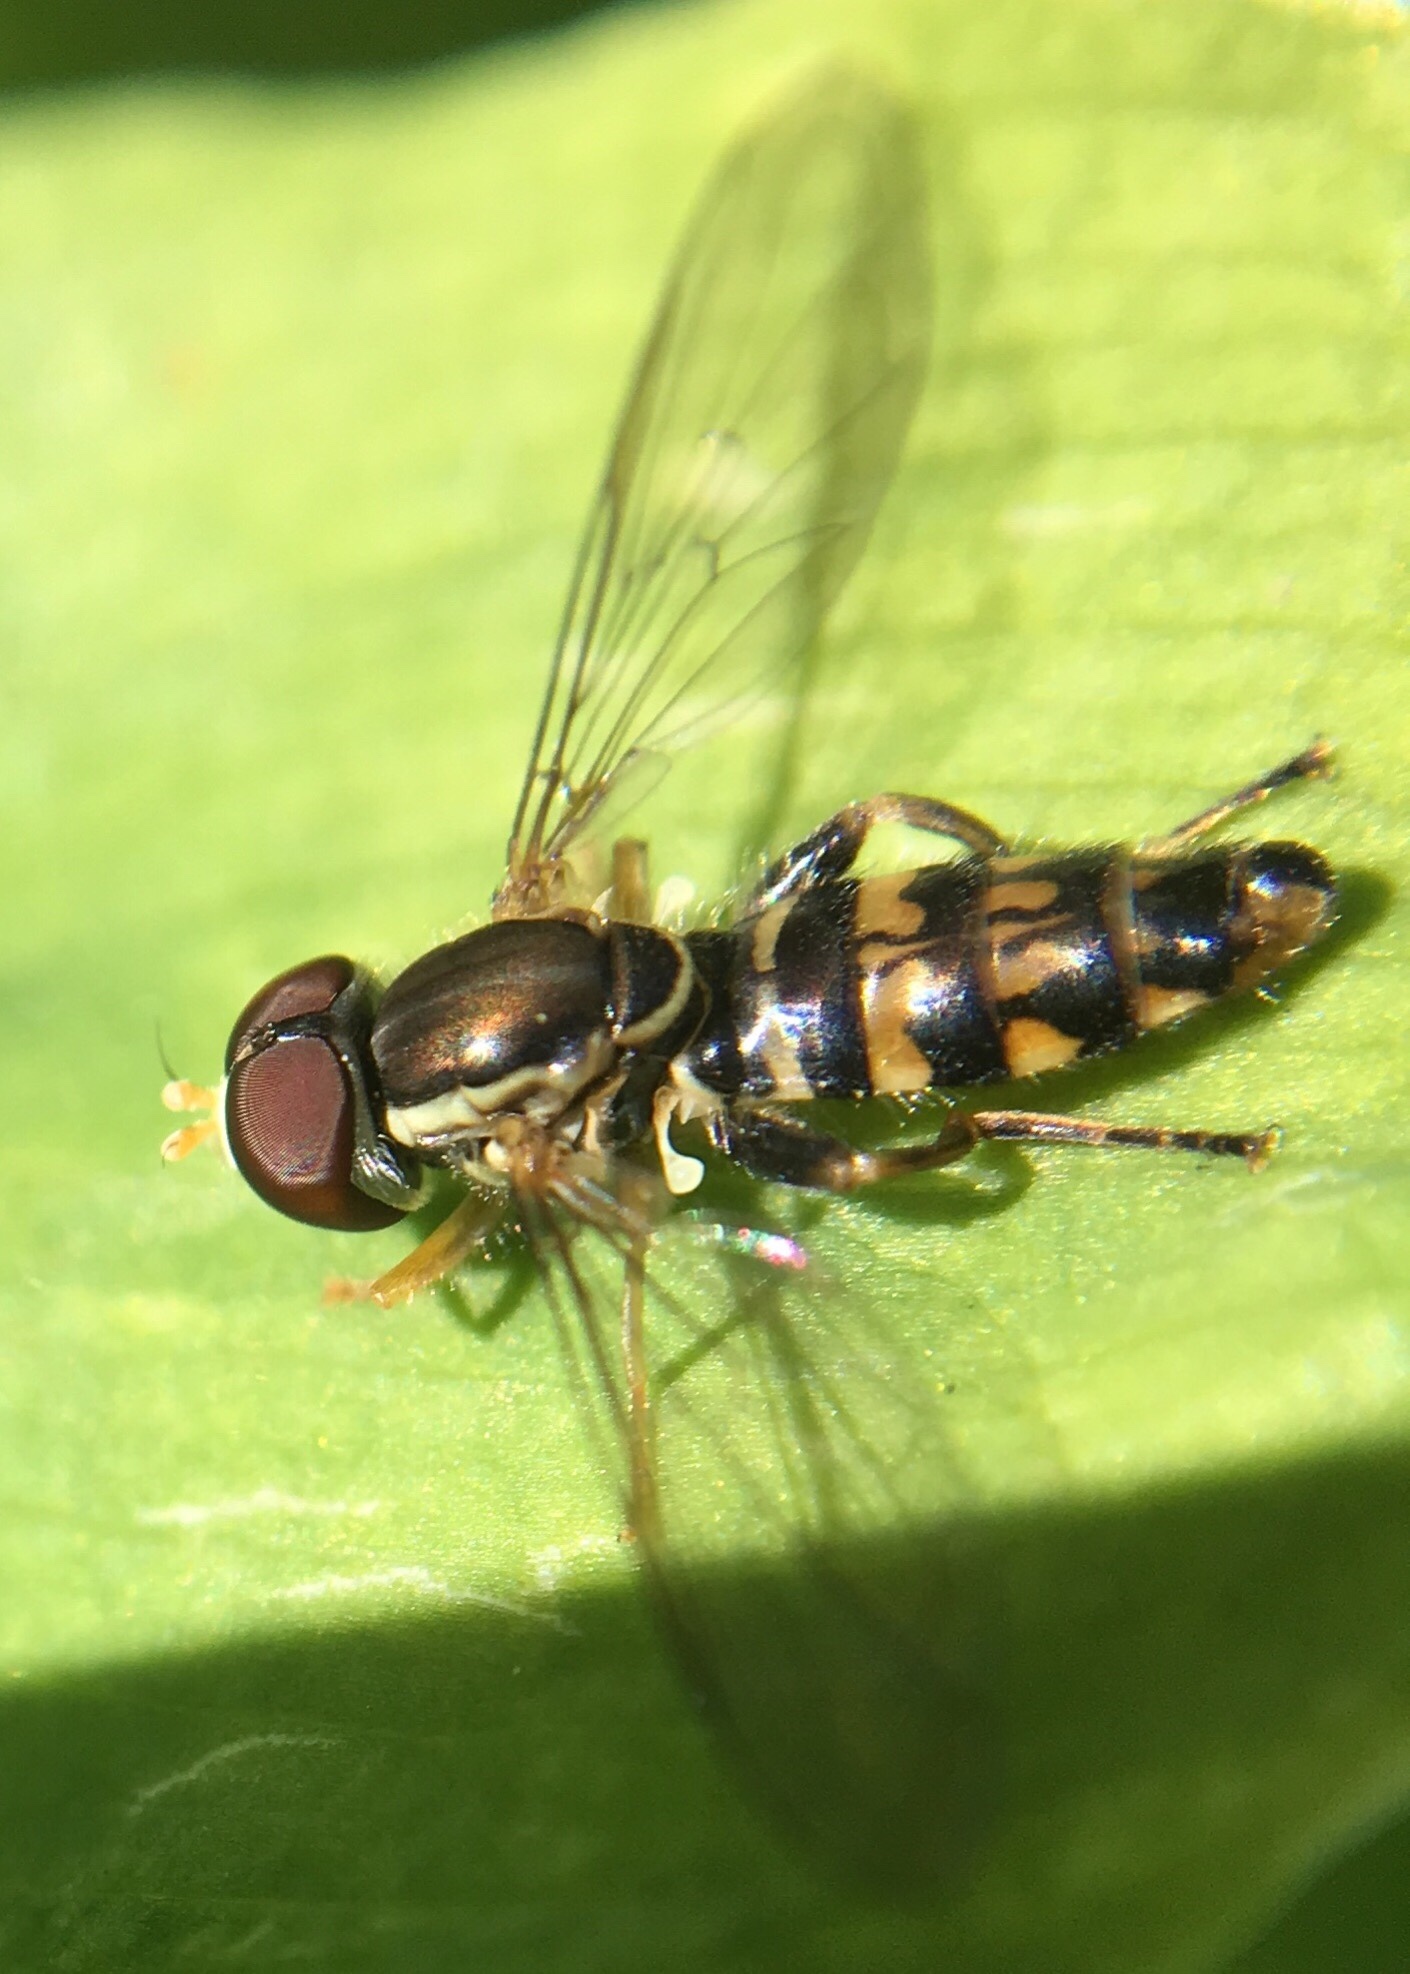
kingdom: Animalia
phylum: Arthropoda
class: Insecta
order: Diptera
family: Syrphidae
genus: Toxomerus
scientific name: Toxomerus geminatus
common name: Eastern calligrapher
